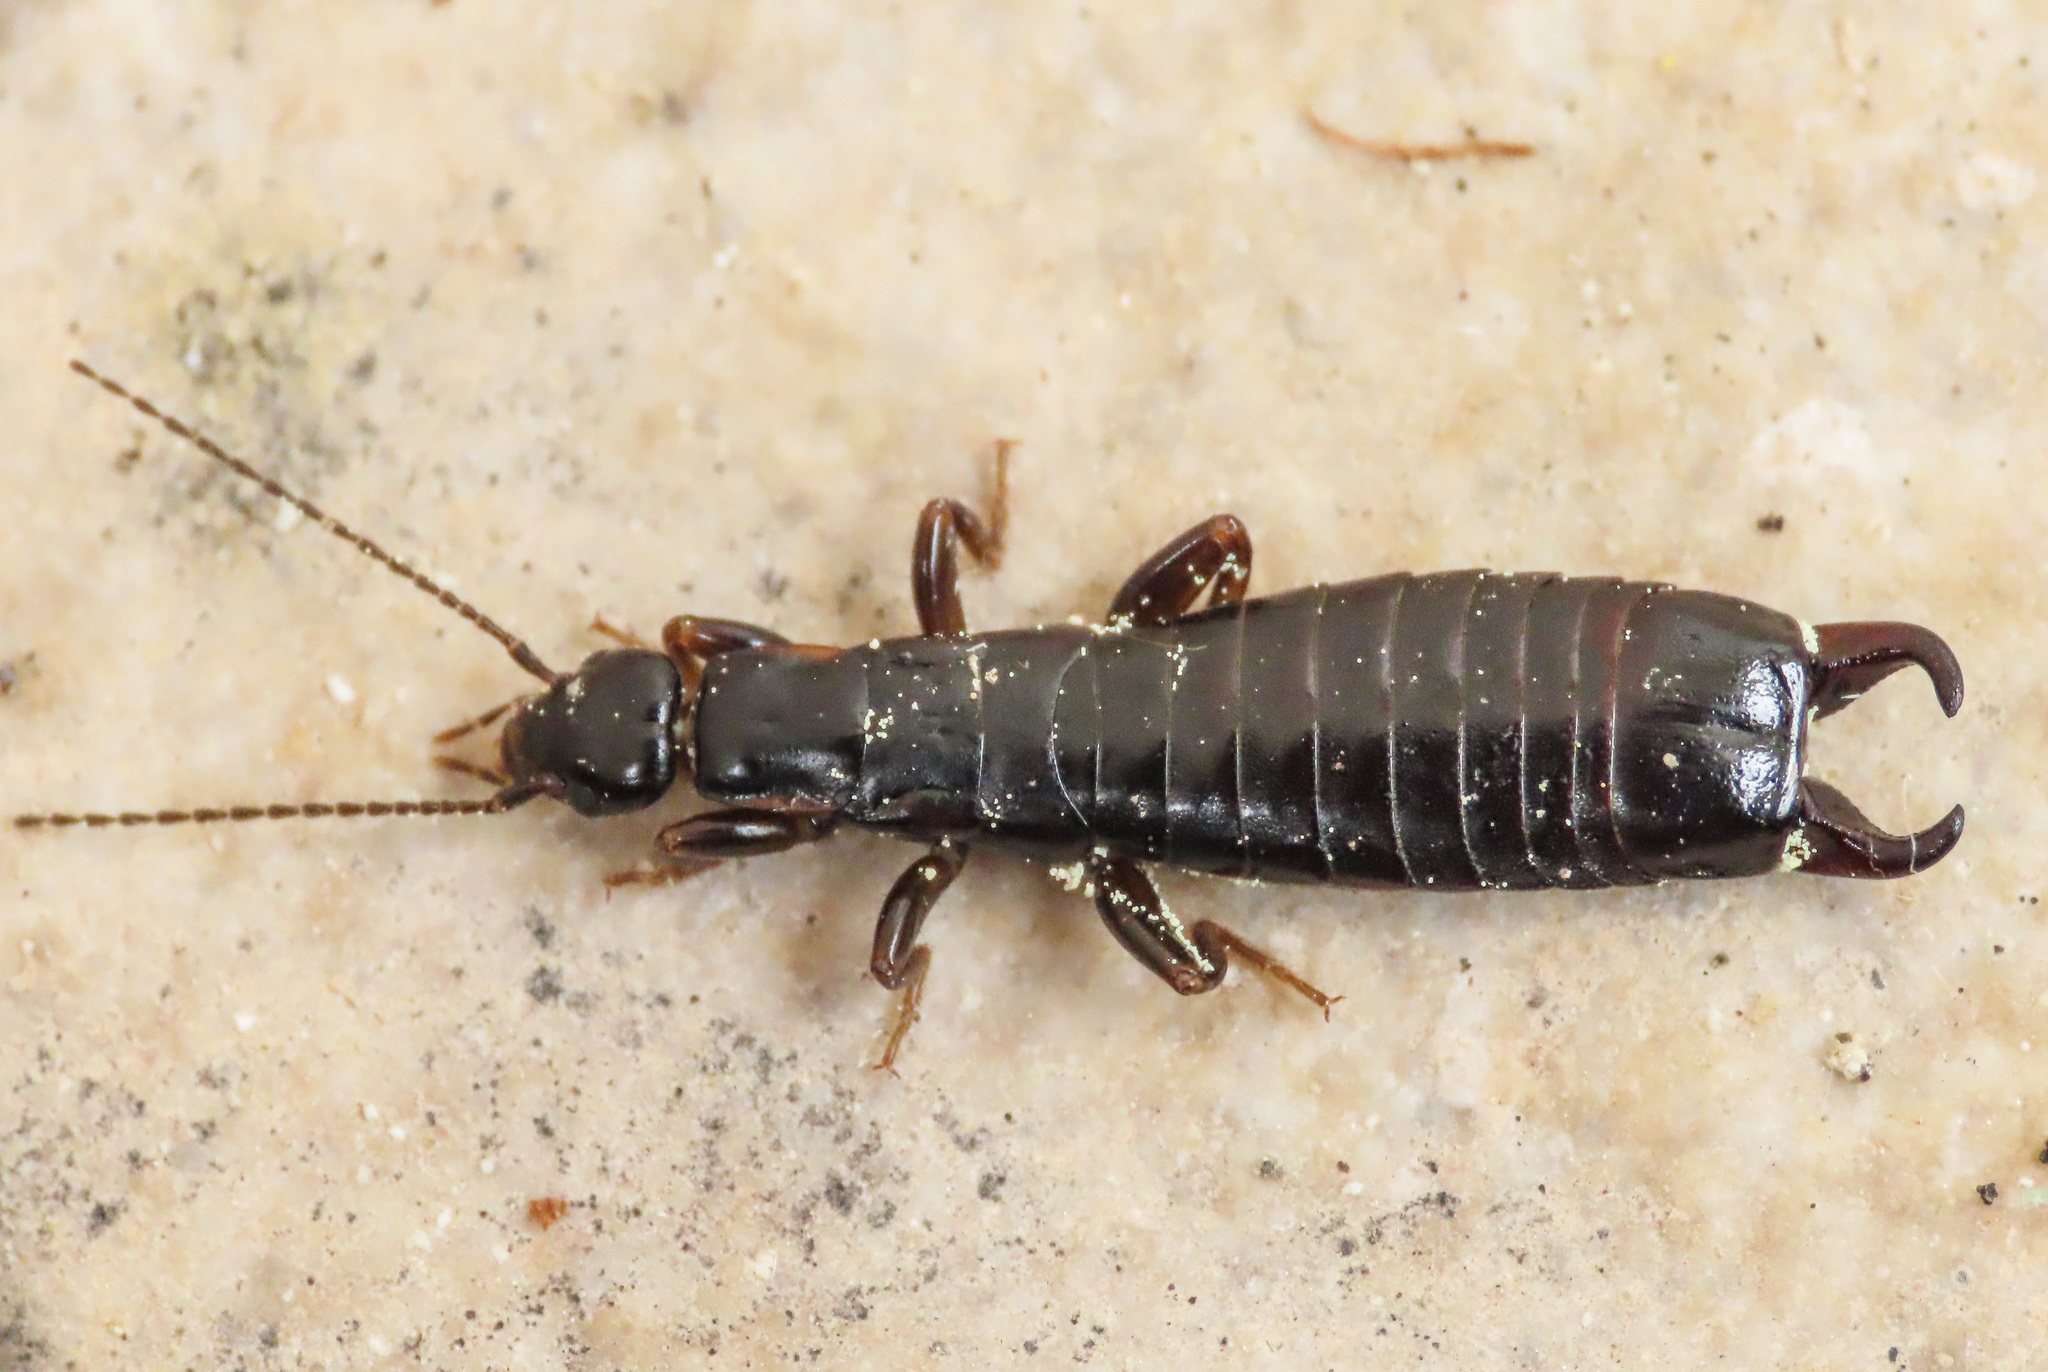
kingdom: Animalia
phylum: Arthropoda
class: Insecta
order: Dermaptera
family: Anisolabididae
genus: Euborellia
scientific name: Euborellia moesta
